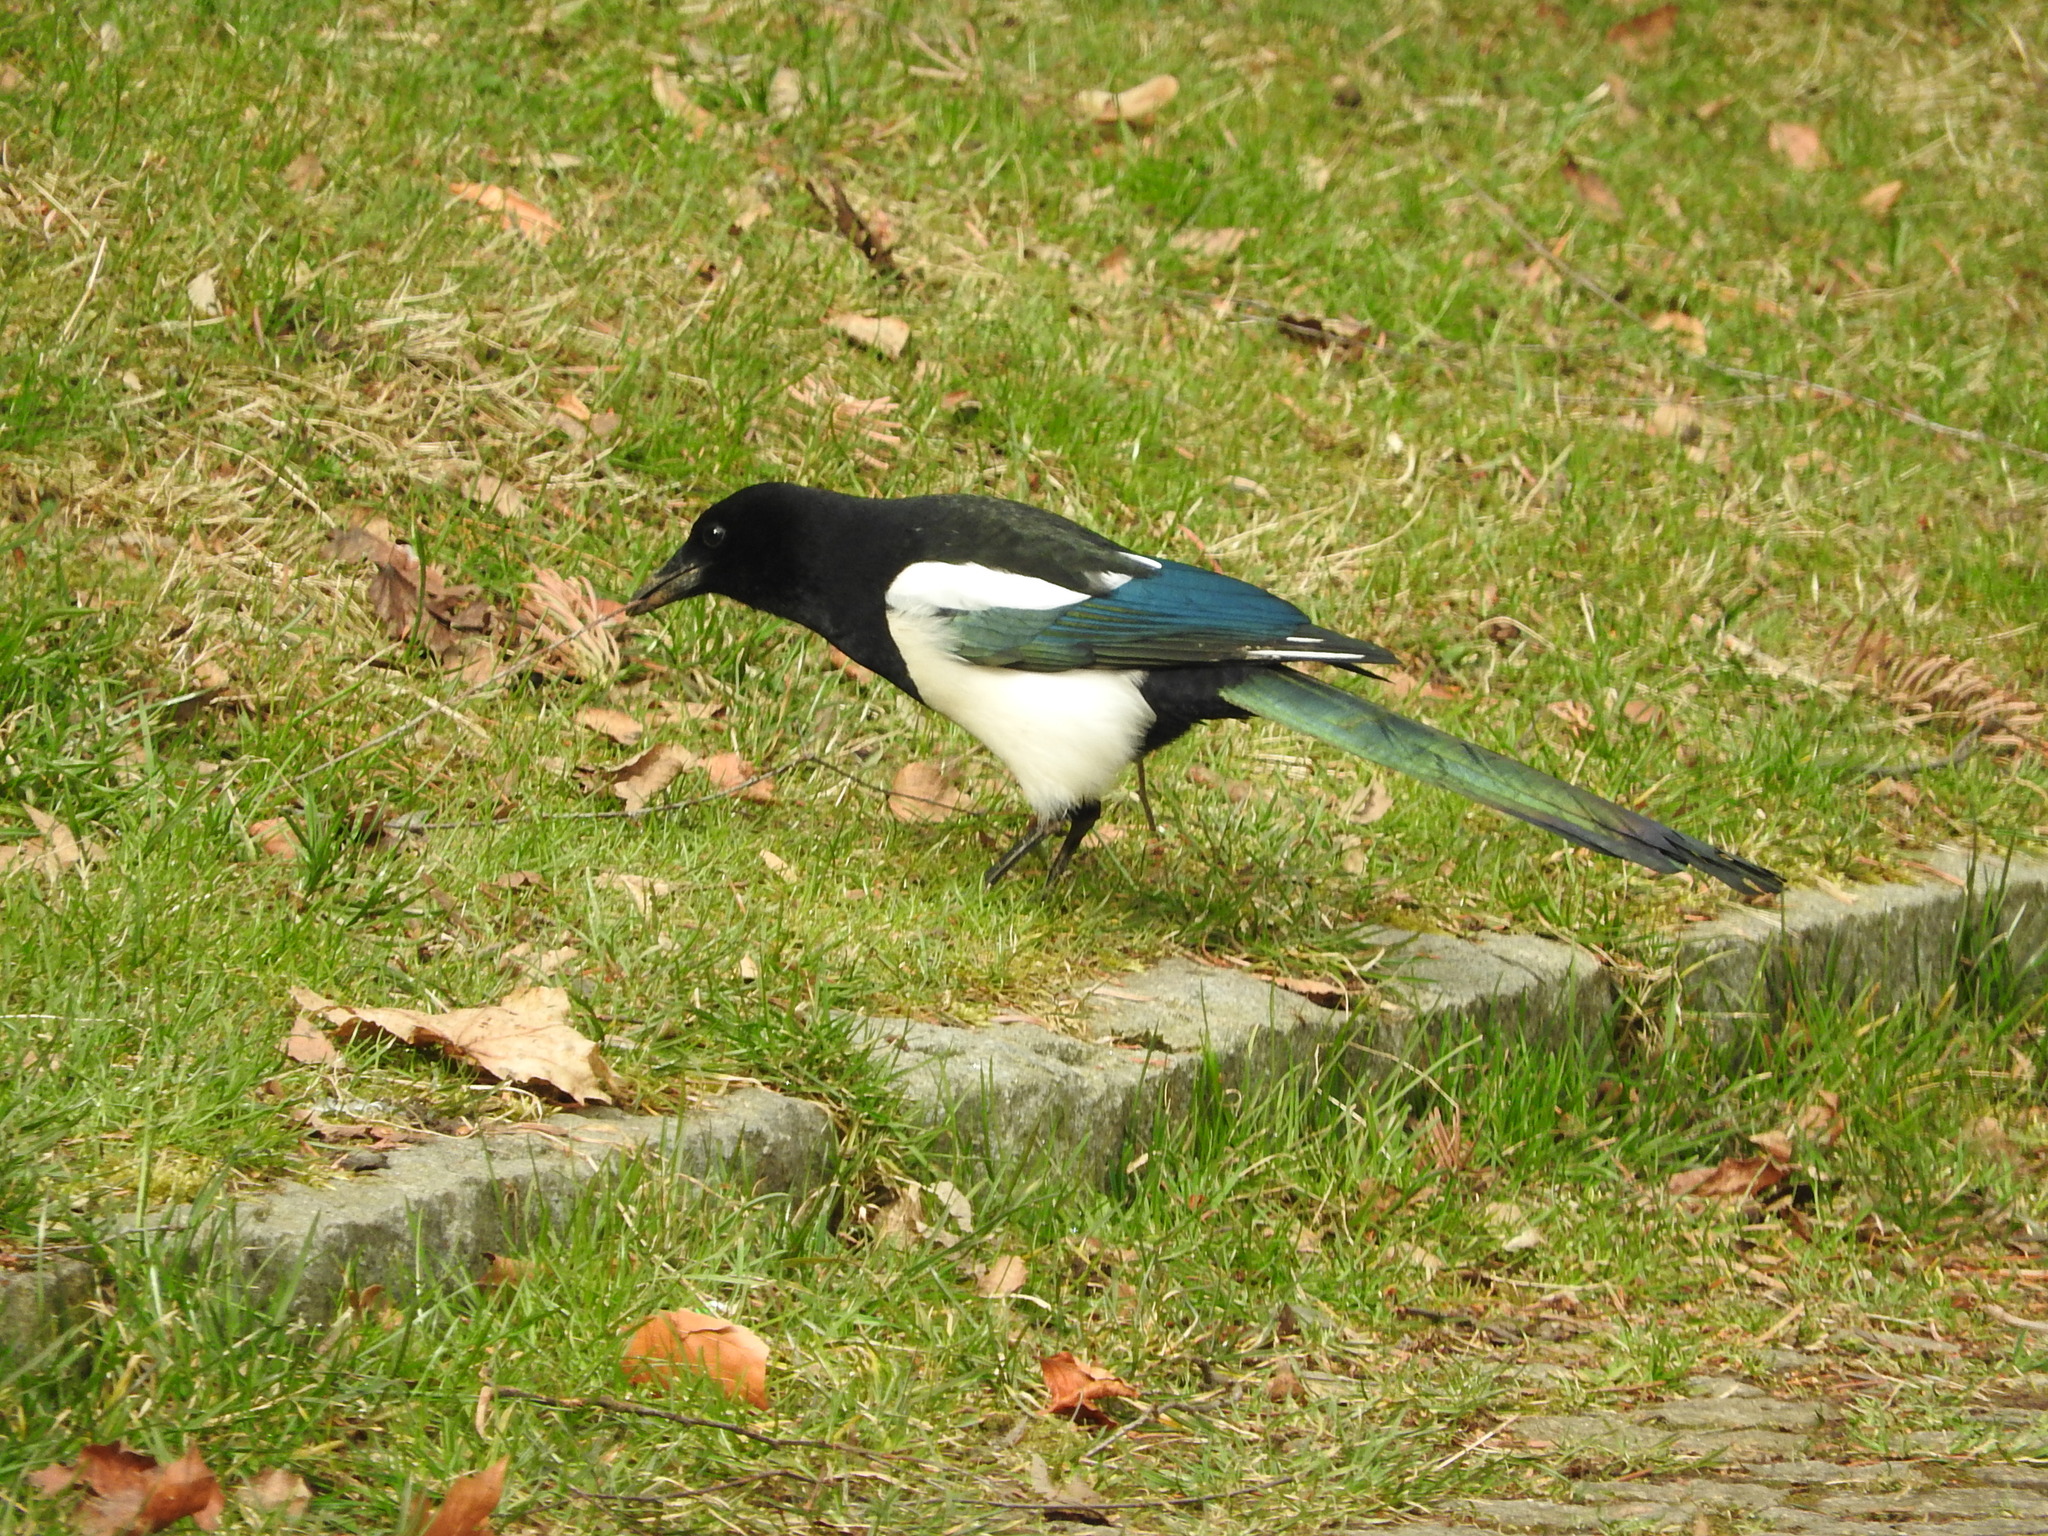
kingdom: Animalia
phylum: Chordata
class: Aves
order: Passeriformes
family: Corvidae
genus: Pica
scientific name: Pica pica
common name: Eurasian magpie
